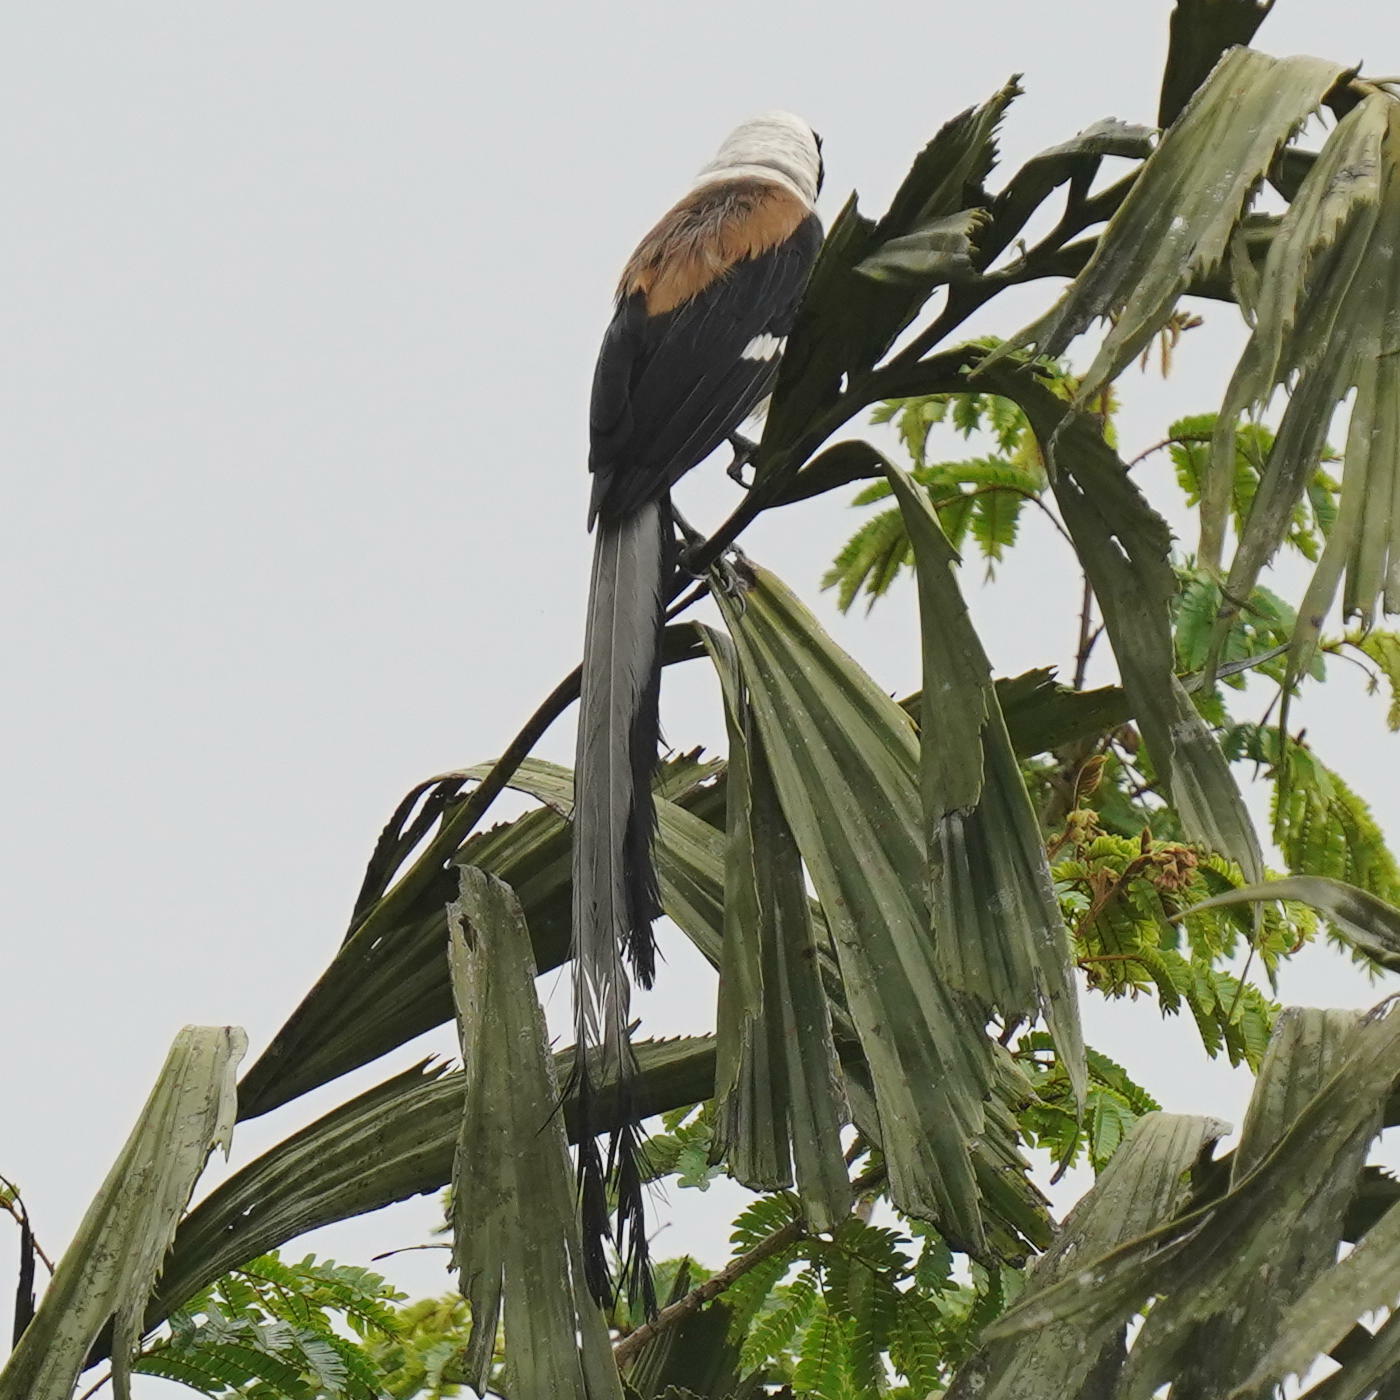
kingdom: Animalia
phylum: Chordata
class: Aves
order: Passeriformes
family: Corvidae
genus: Dendrocitta
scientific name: Dendrocitta leucogastra
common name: White-bellied treepie
